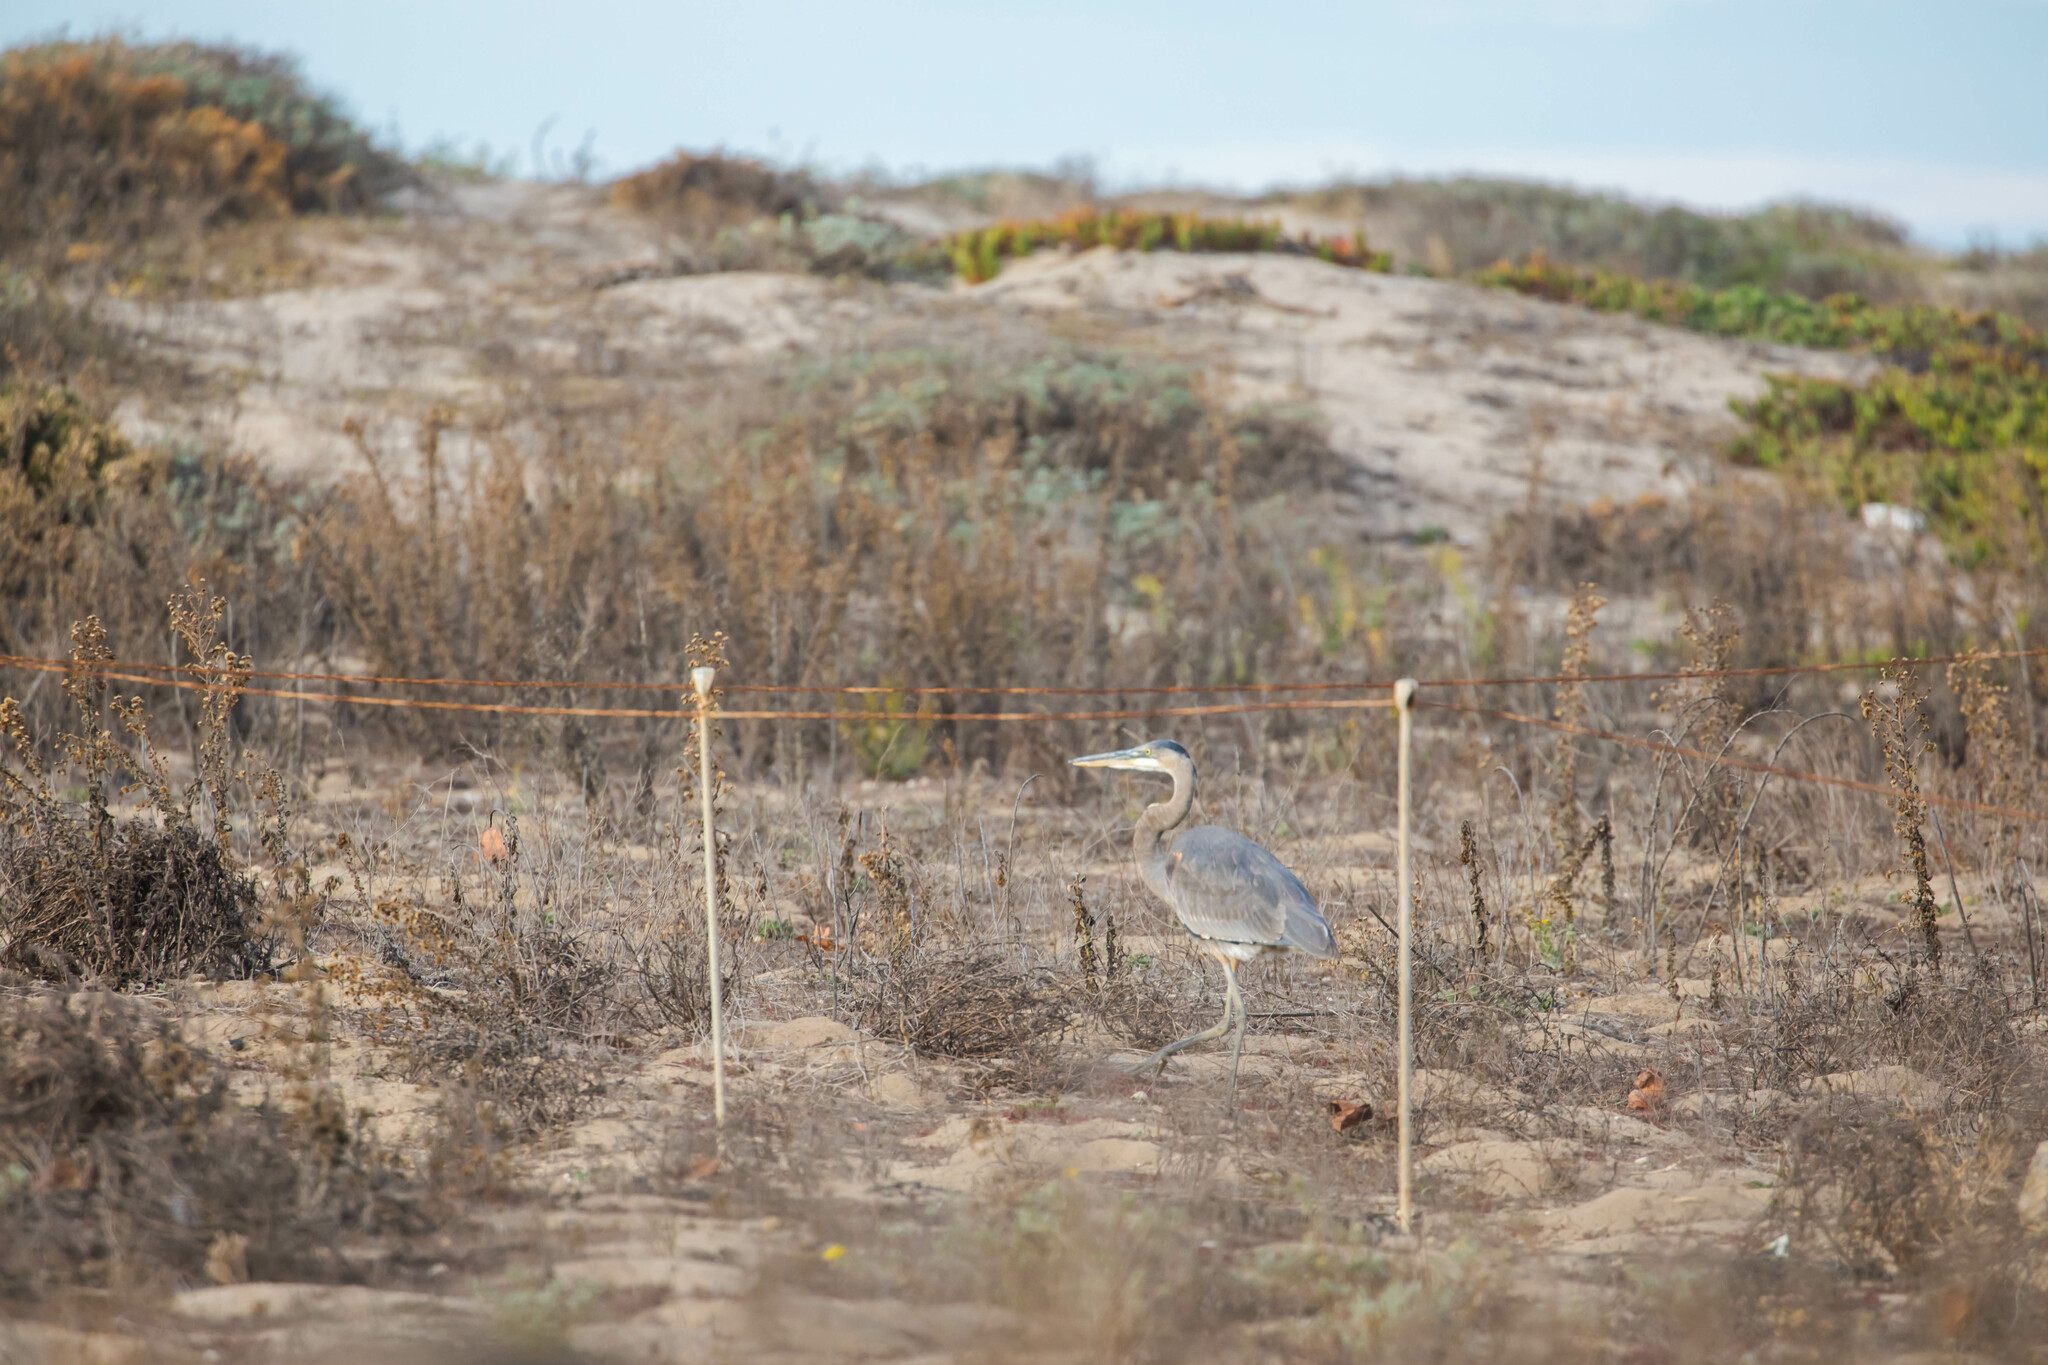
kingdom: Animalia
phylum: Chordata
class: Aves
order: Pelecaniformes
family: Ardeidae
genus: Ardea
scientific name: Ardea herodias
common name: Great blue heron
